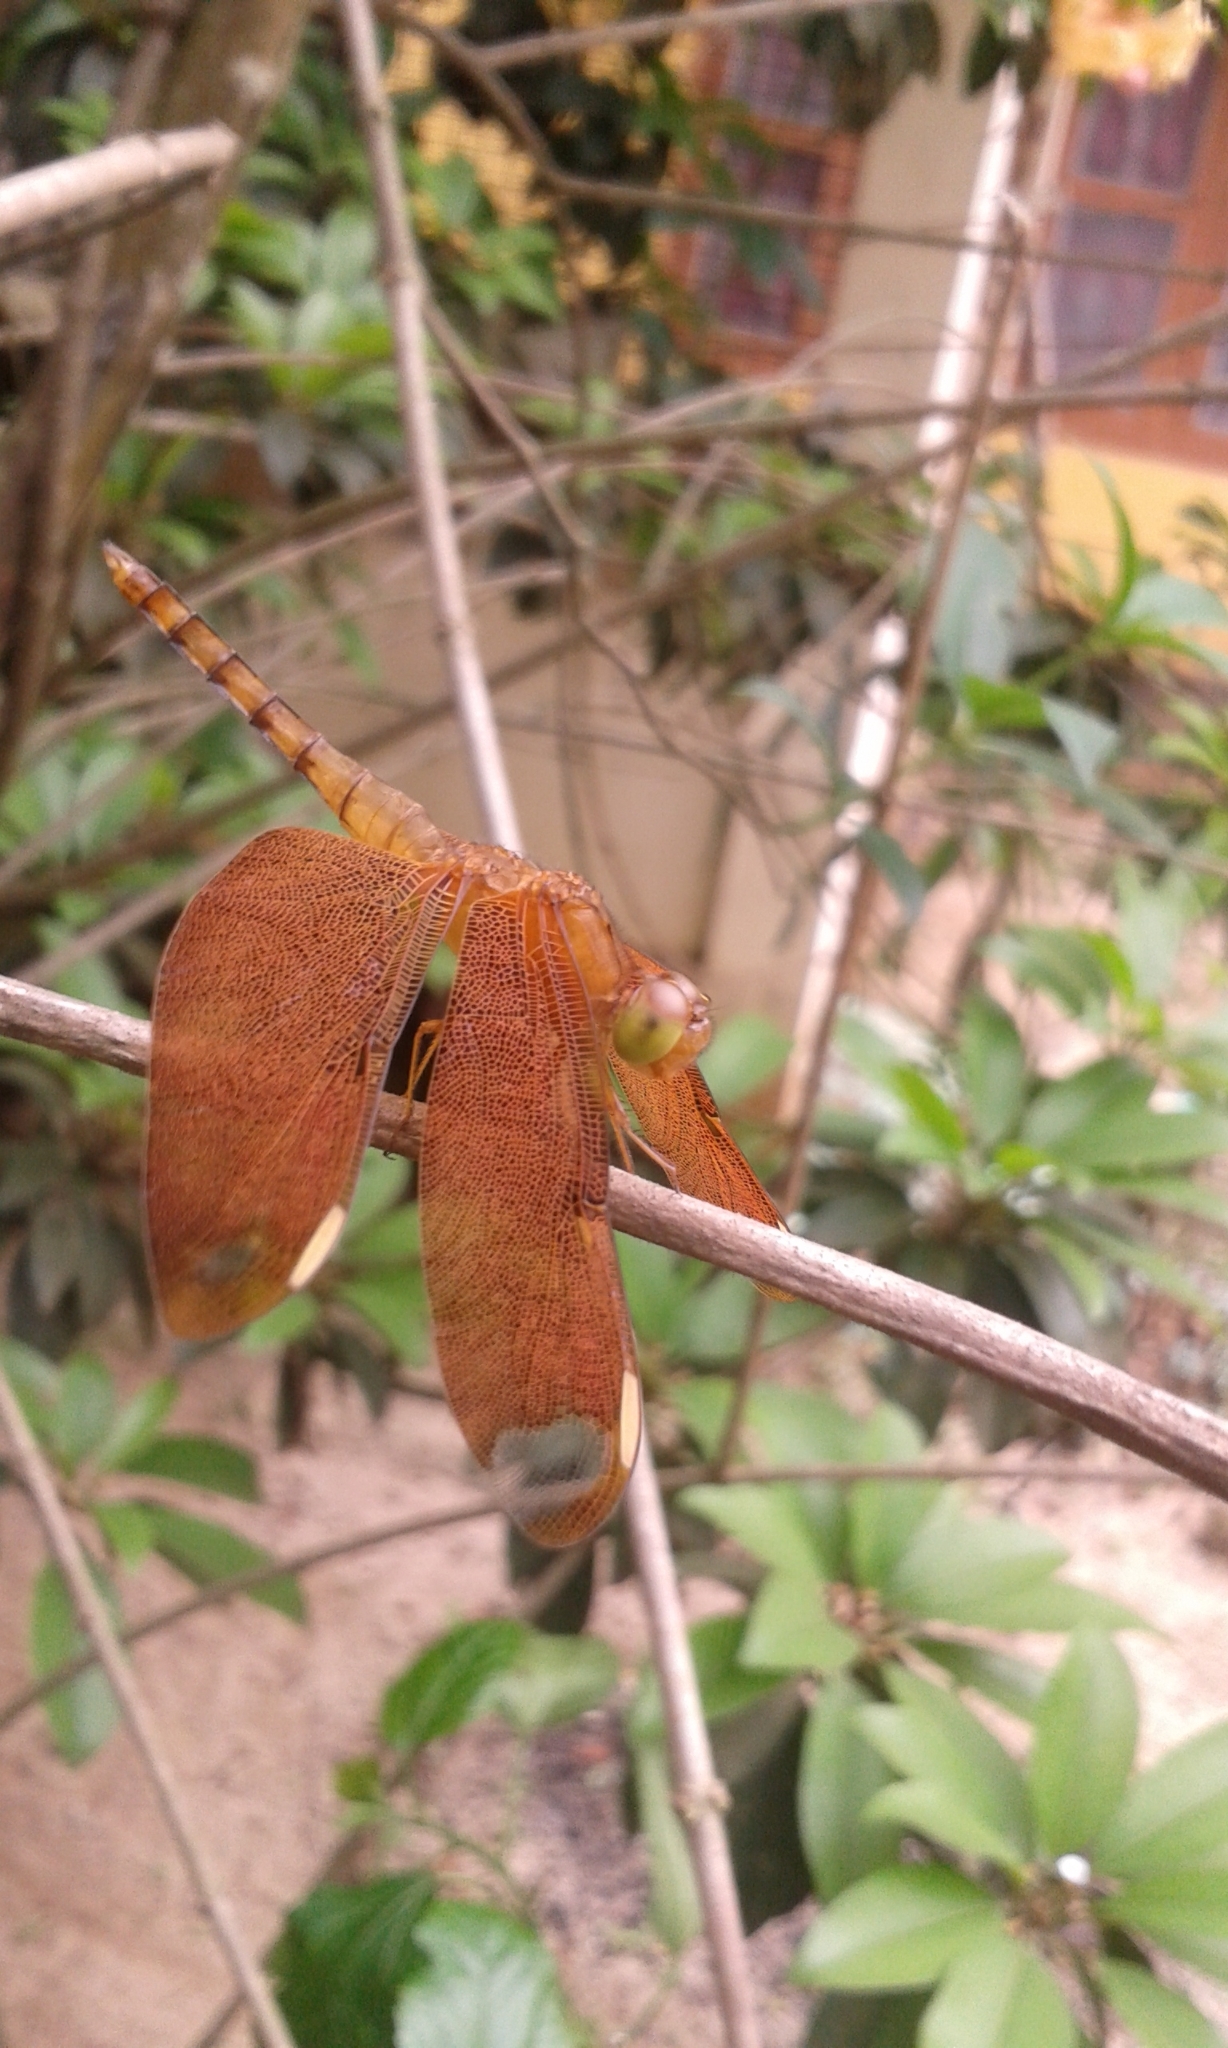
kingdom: Animalia
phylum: Arthropoda
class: Insecta
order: Odonata
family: Libellulidae
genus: Neurothemis
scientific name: Neurothemis fulvia
